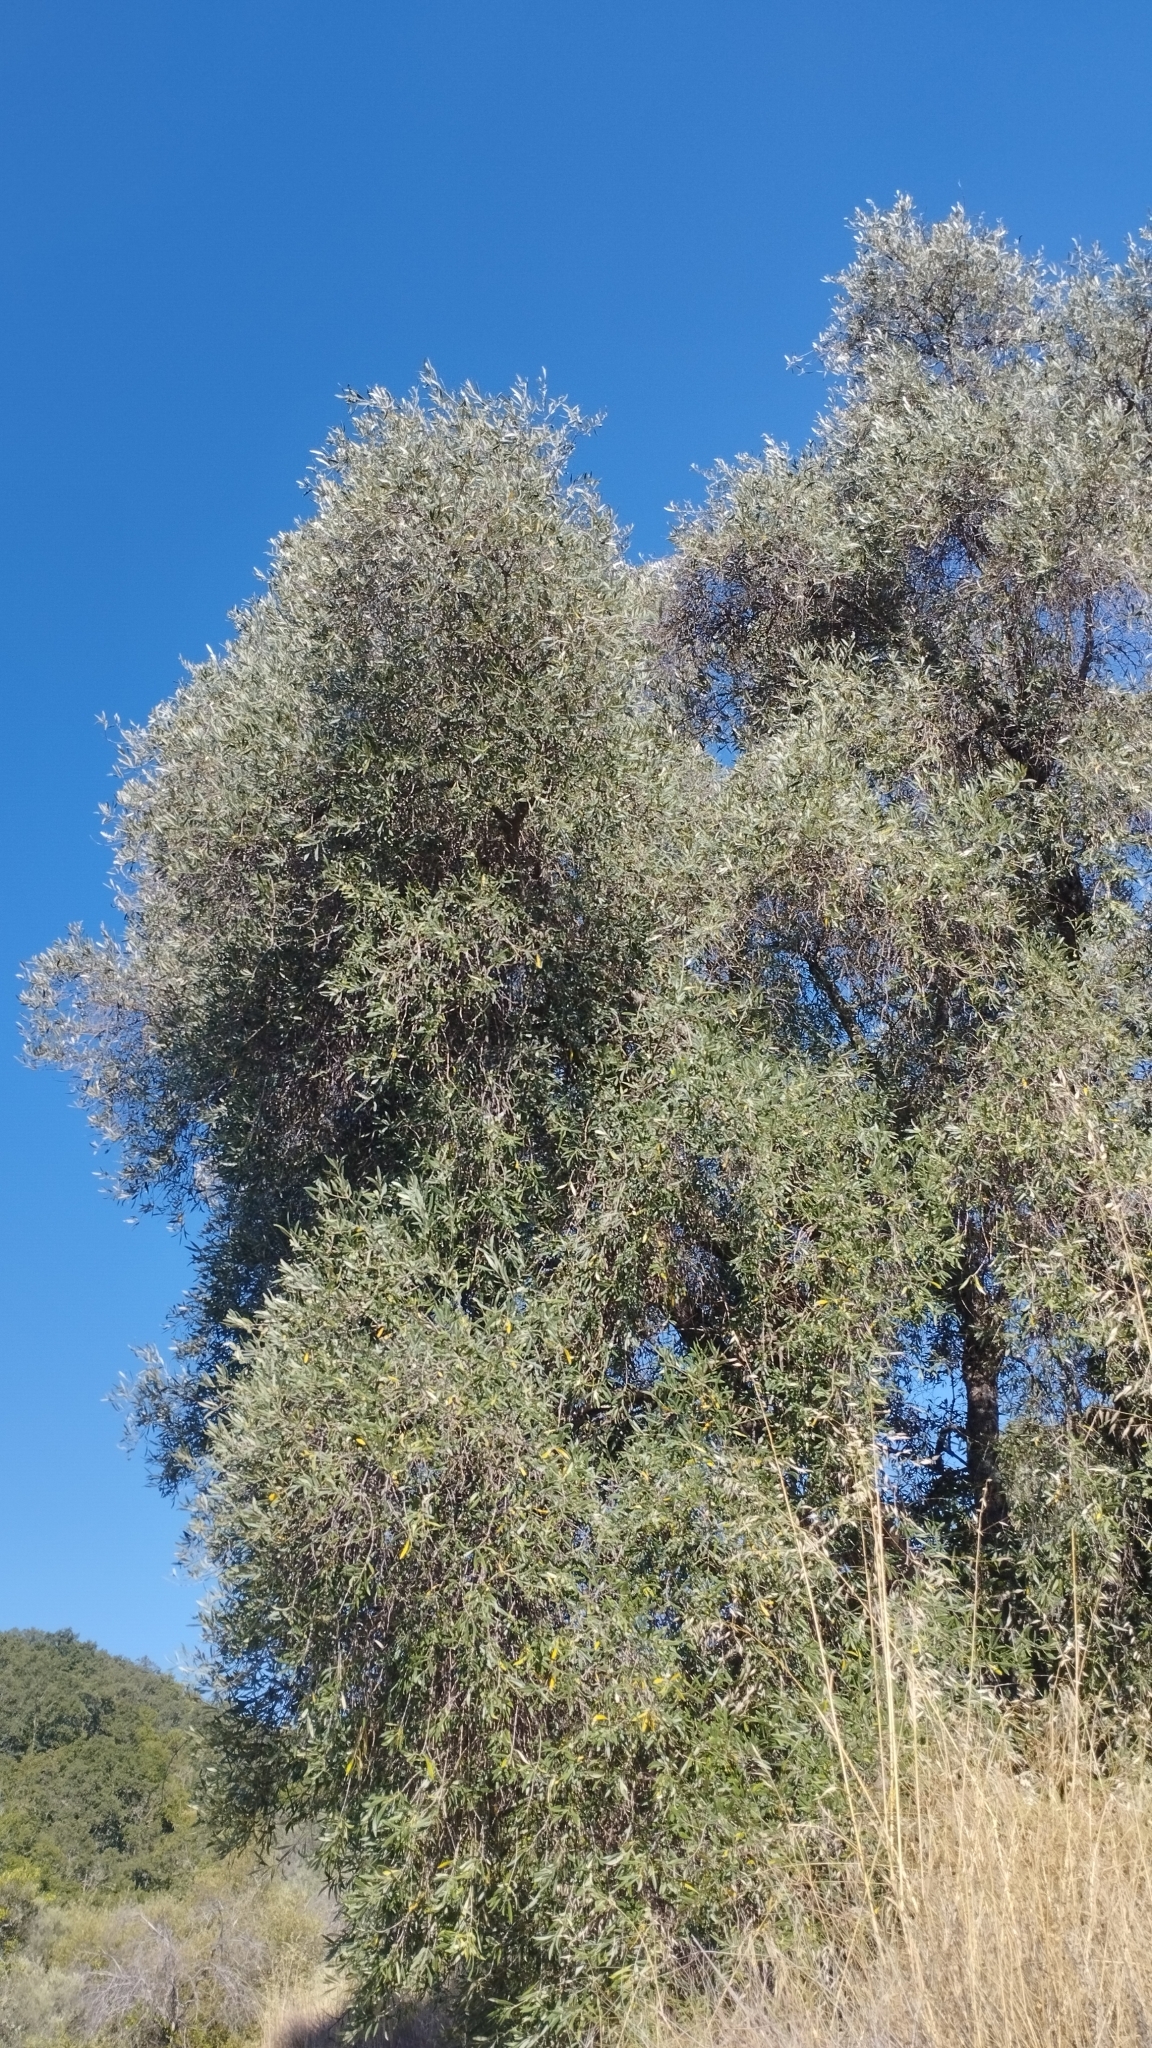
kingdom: Plantae
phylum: Tracheophyta
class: Magnoliopsida
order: Lamiales
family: Oleaceae
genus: Olea
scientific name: Olea europaea
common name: Olive
